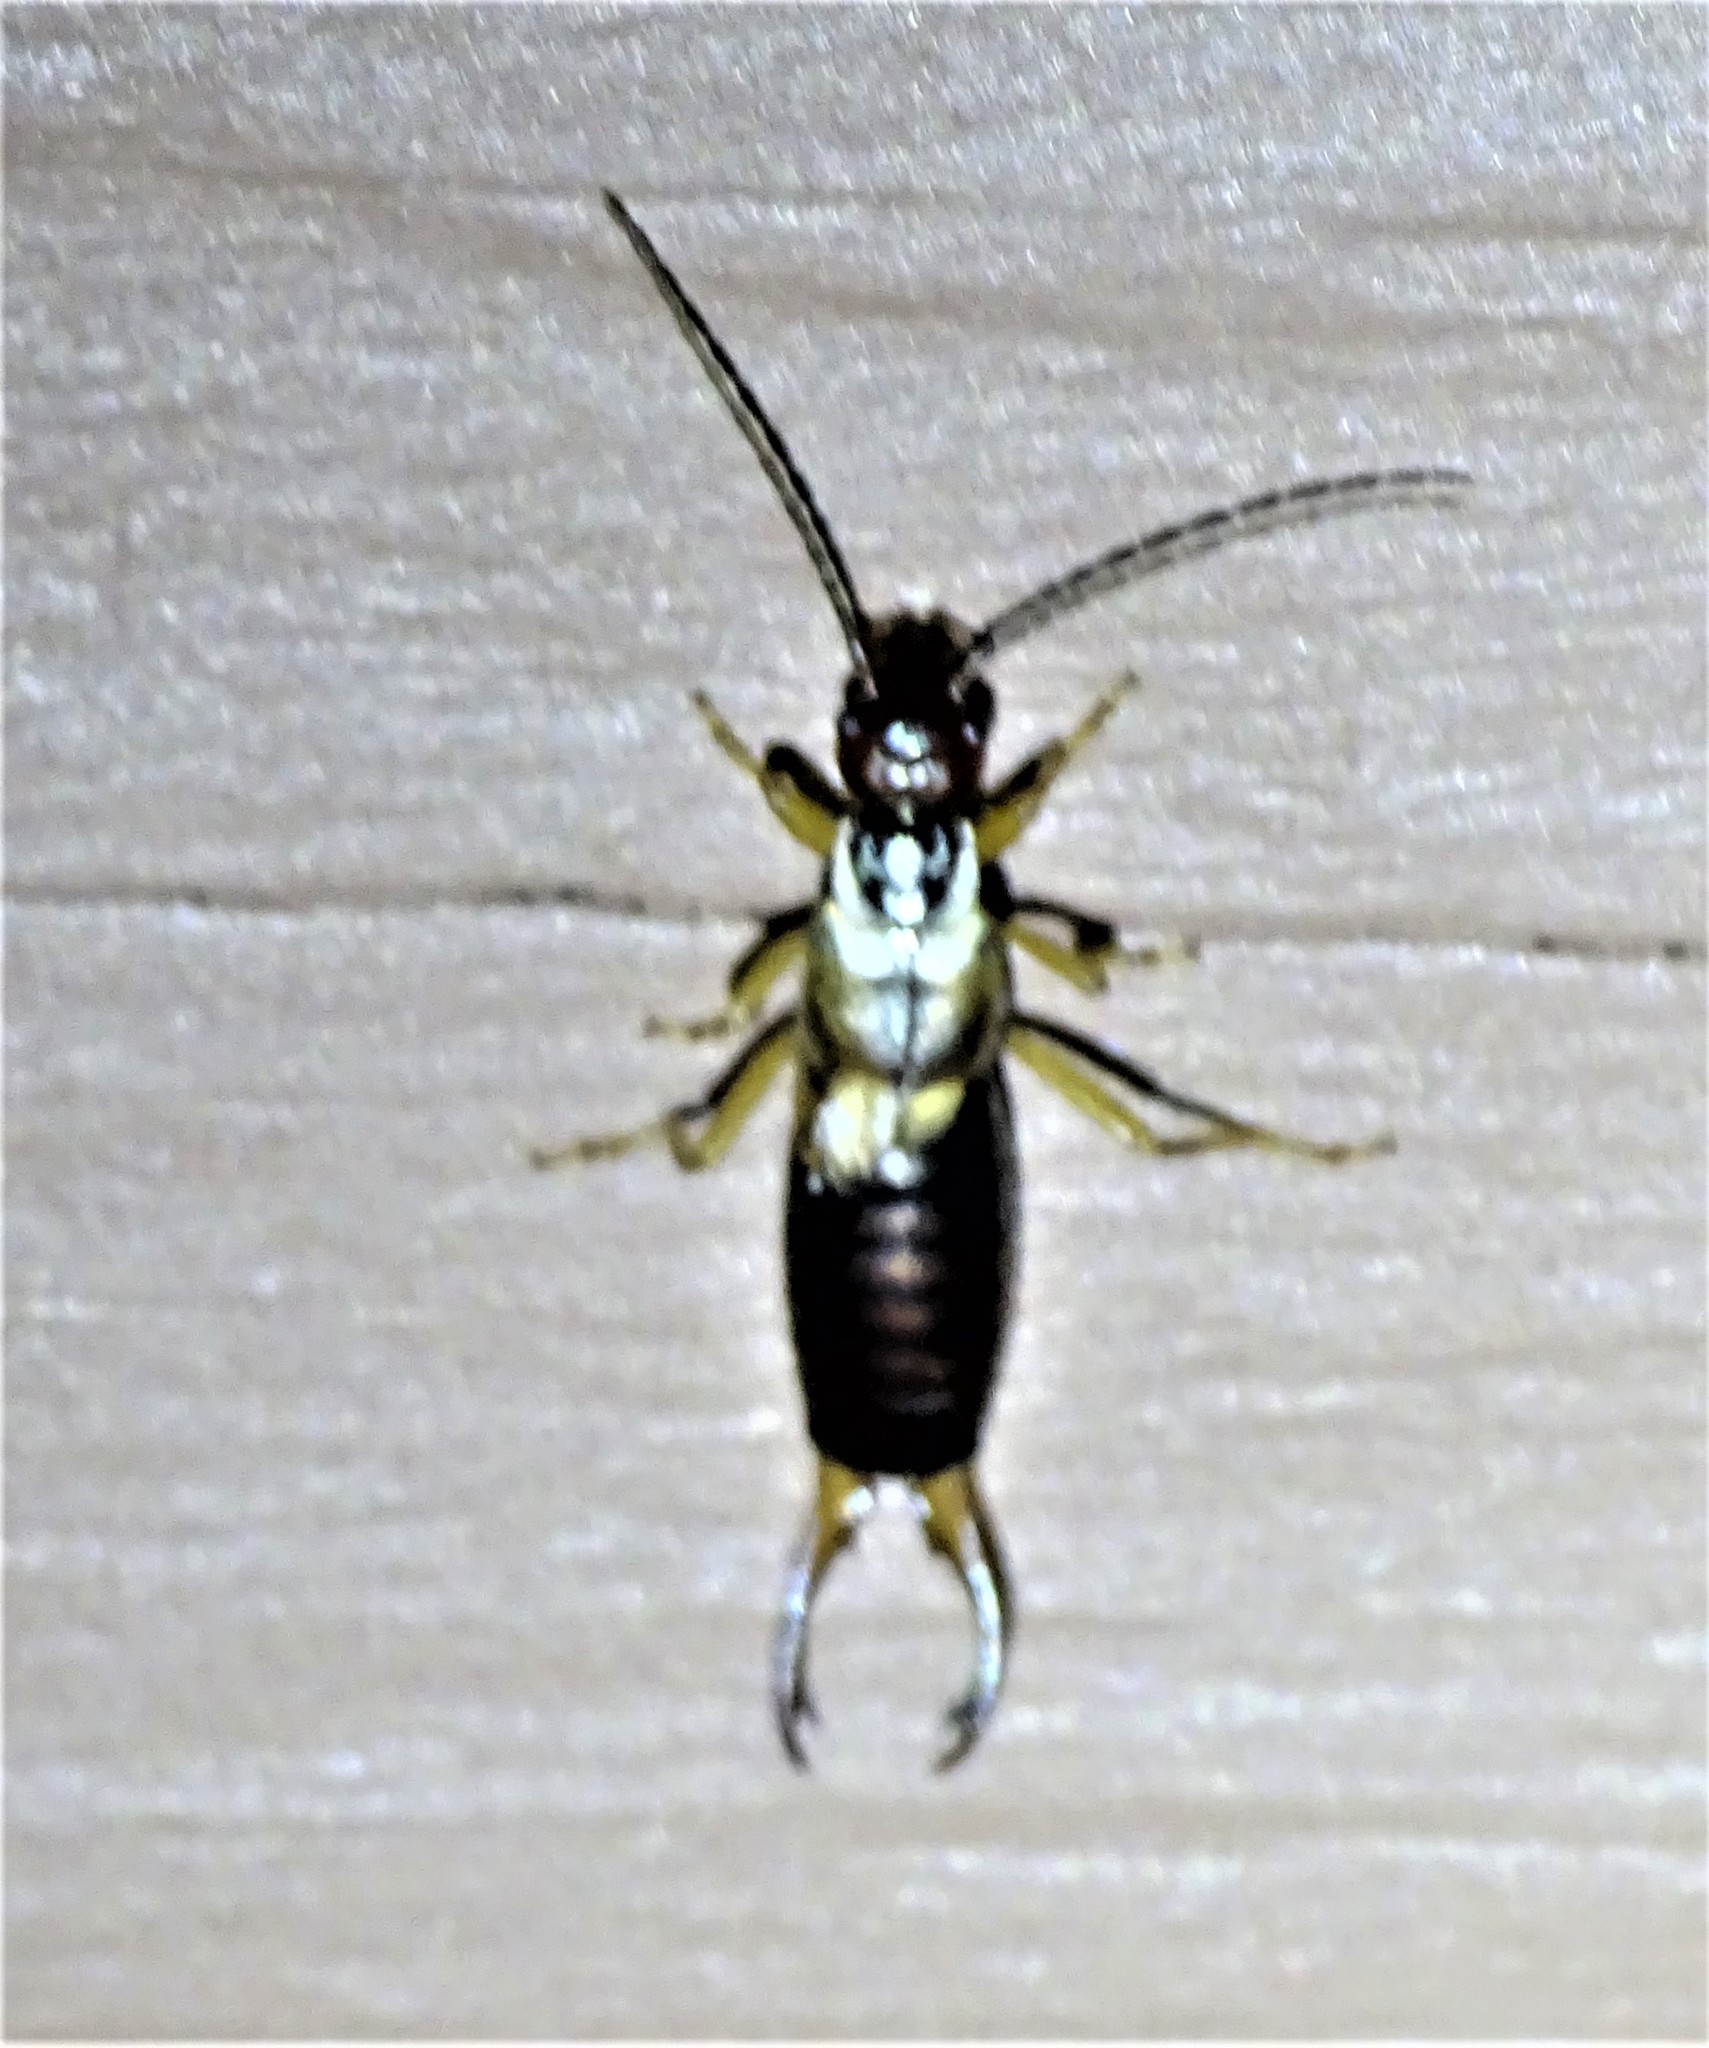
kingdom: Animalia
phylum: Arthropoda
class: Insecta
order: Dermaptera
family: Forficulidae
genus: Forficula
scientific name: Forficula
